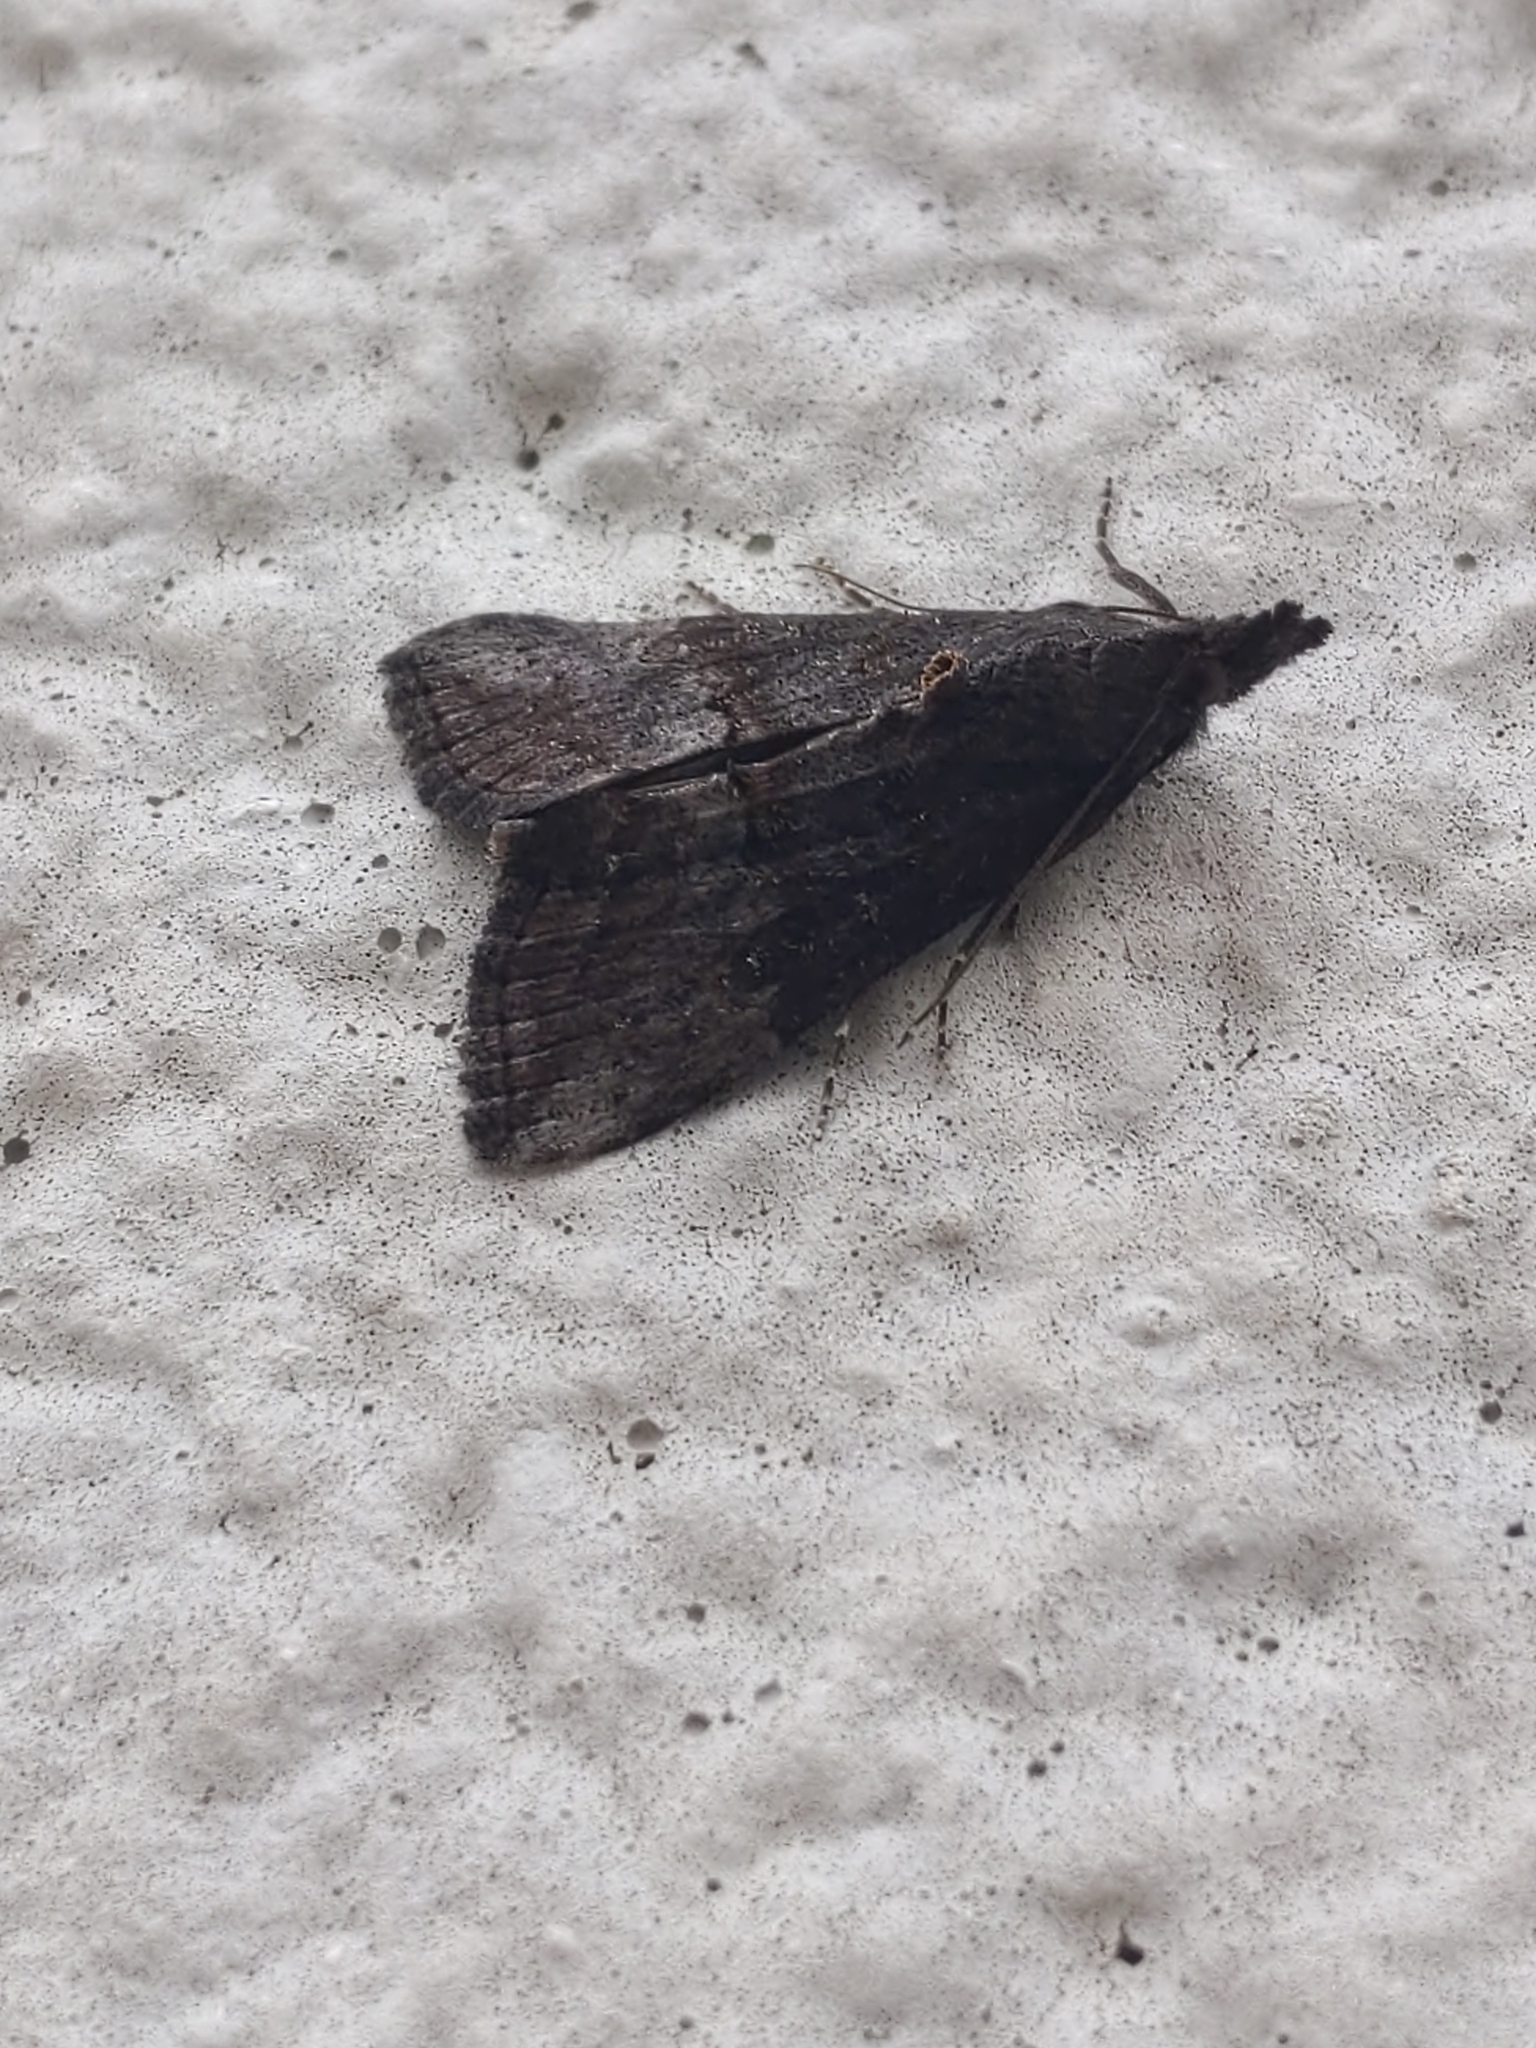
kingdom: Animalia
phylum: Arthropoda
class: Insecta
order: Lepidoptera
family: Erebidae
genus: Hypena
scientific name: Hypena scabra
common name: Green cloverworm
